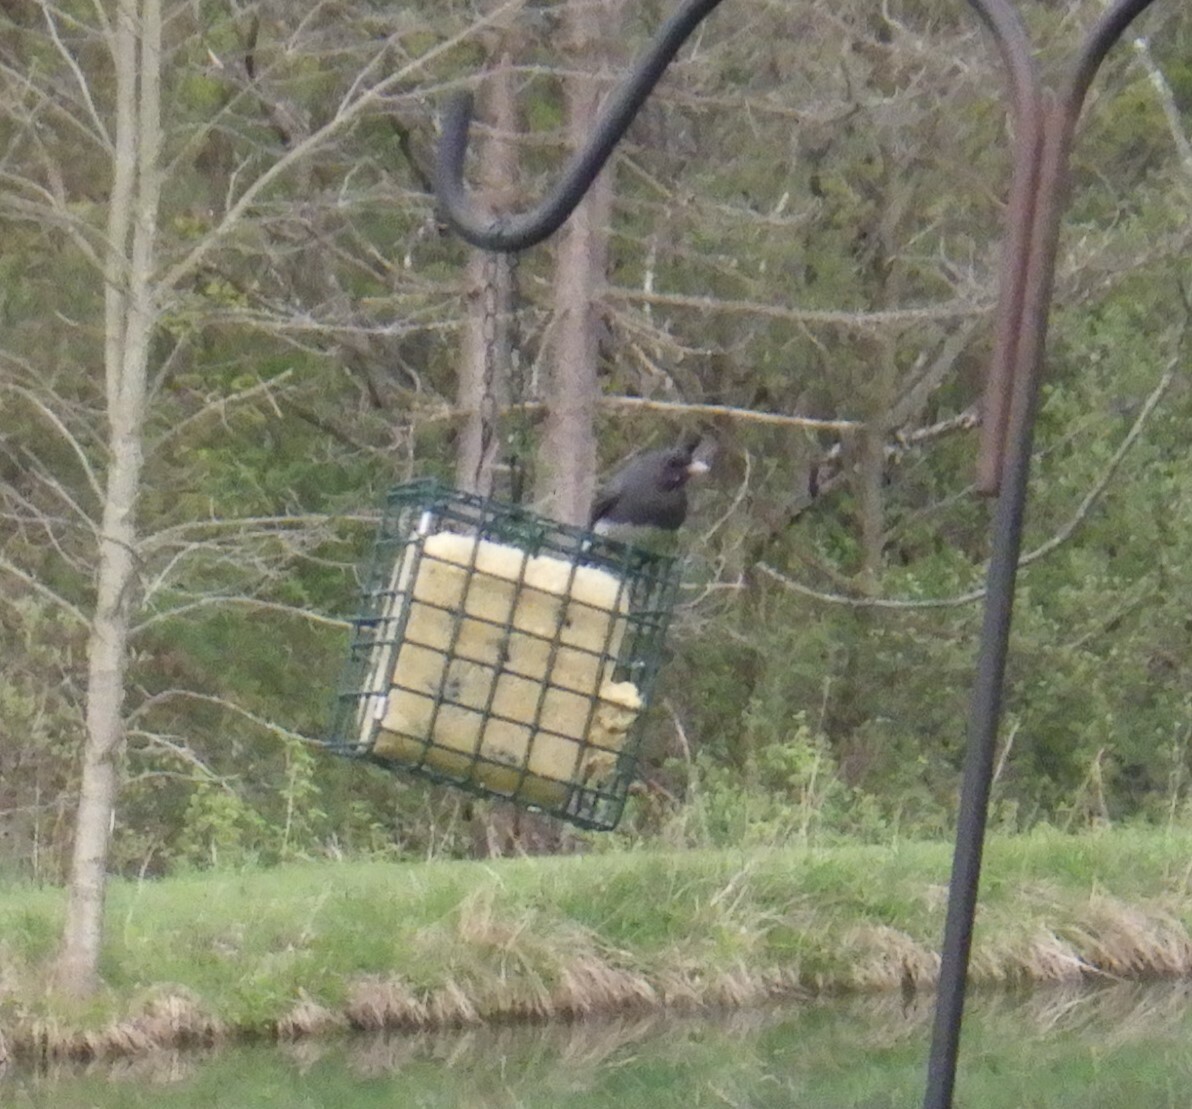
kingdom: Animalia
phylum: Chordata
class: Aves
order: Passeriformes
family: Passerellidae
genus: Junco
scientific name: Junco hyemalis
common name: Dark-eyed junco
